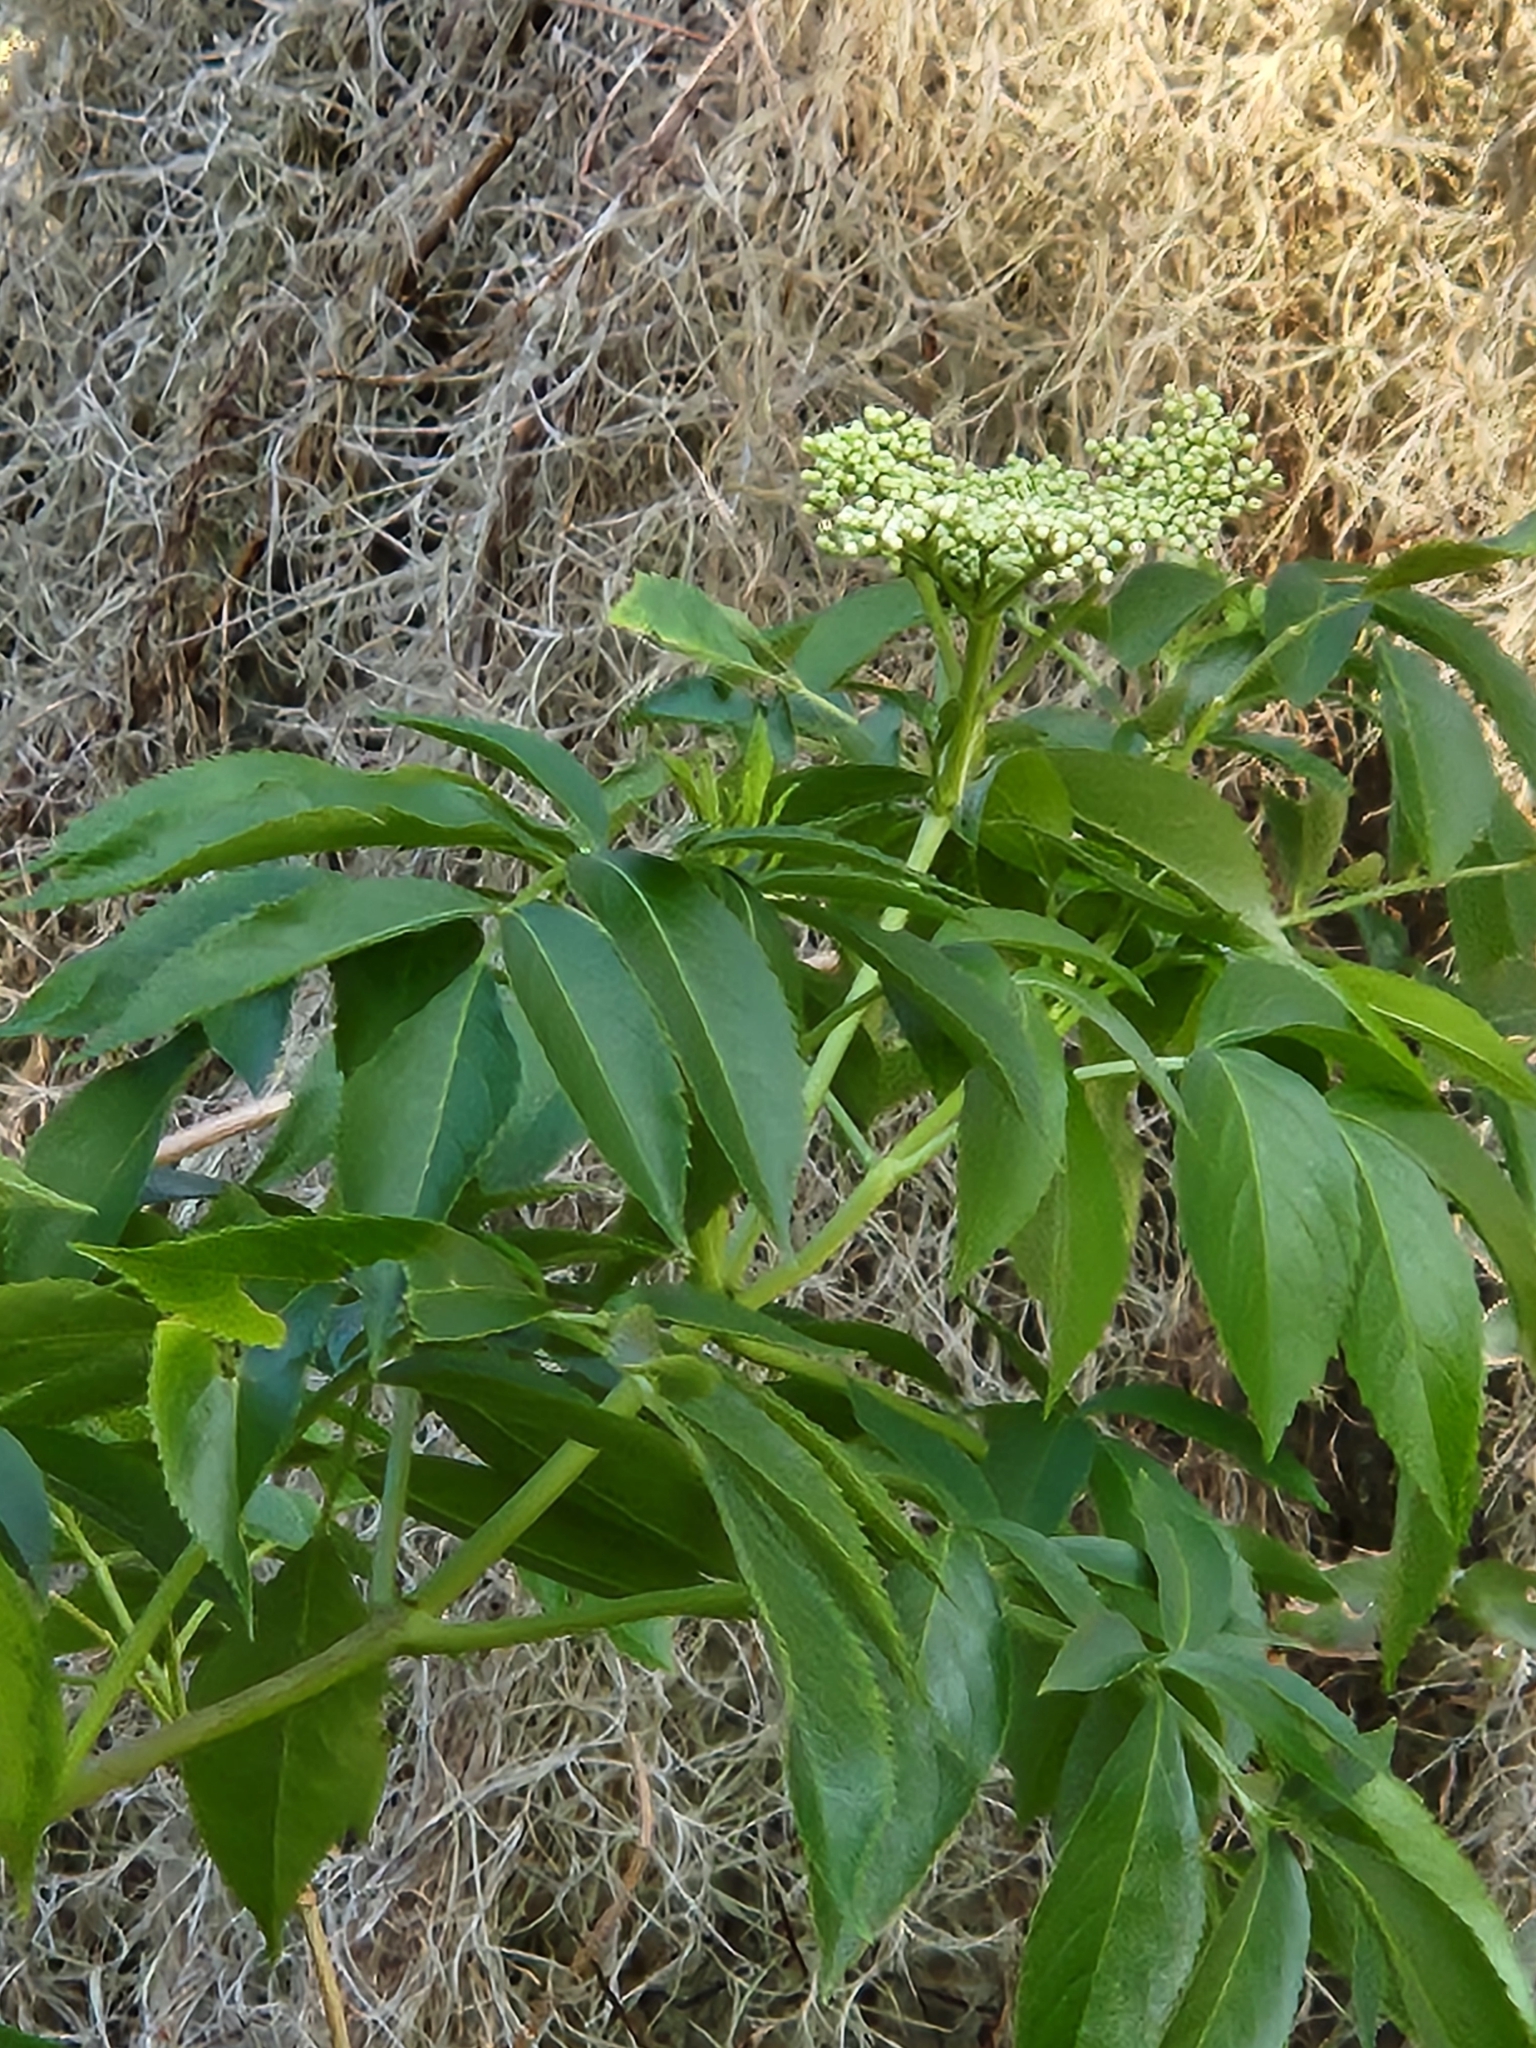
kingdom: Plantae
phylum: Tracheophyta
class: Magnoliopsida
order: Dipsacales
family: Viburnaceae
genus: Sambucus
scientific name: Sambucus canadensis
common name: American elder
